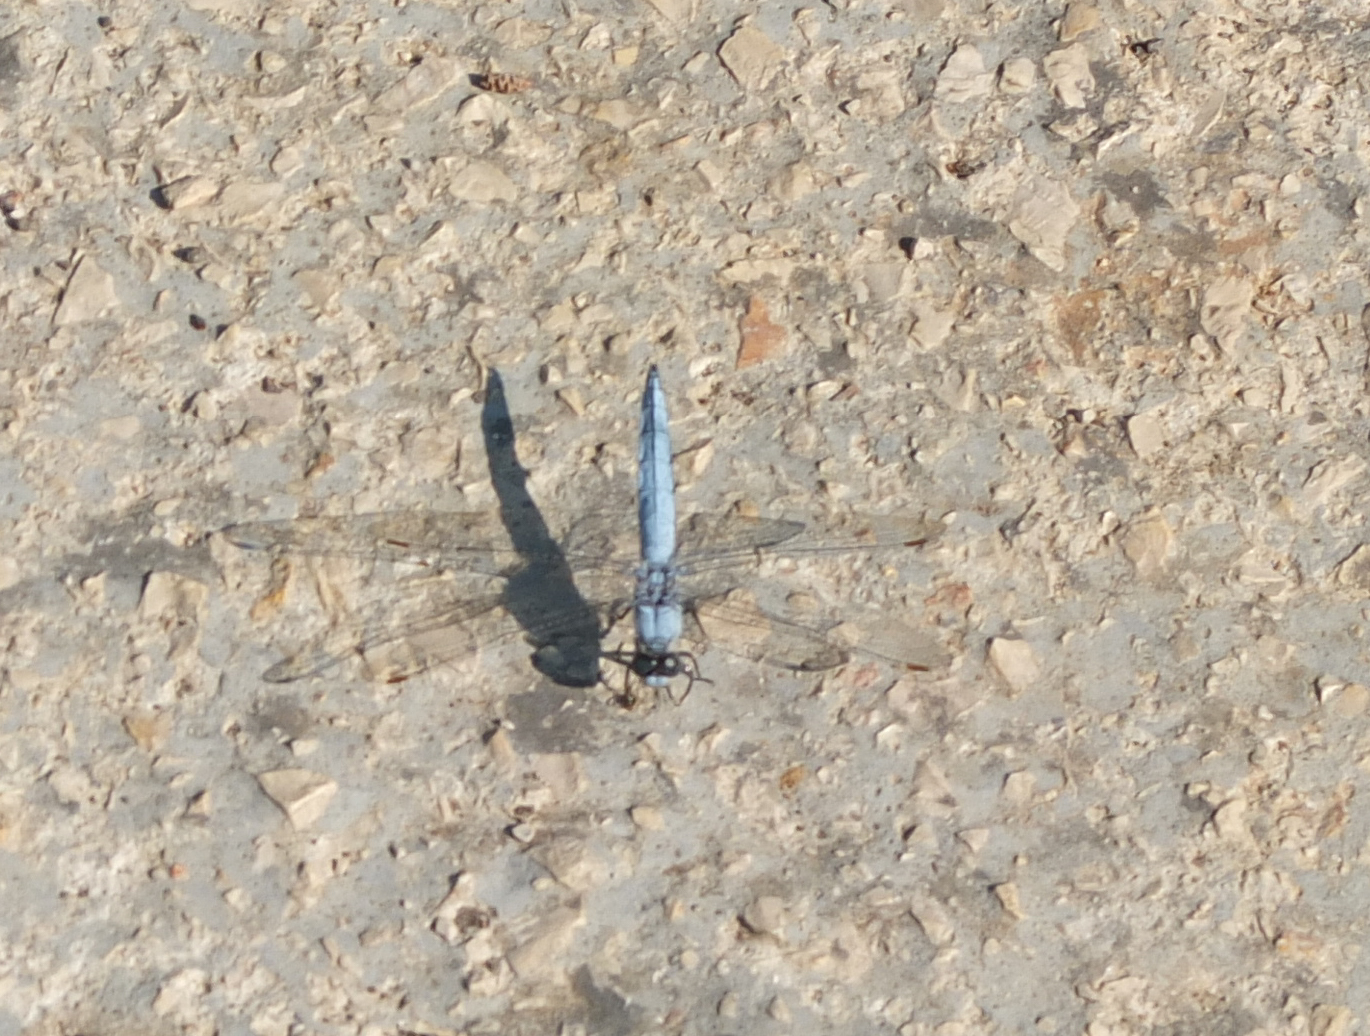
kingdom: Animalia
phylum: Arthropoda
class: Insecta
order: Odonata
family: Libellulidae
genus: Orthetrum
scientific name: Orthetrum brunneum
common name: Southern skimmer
